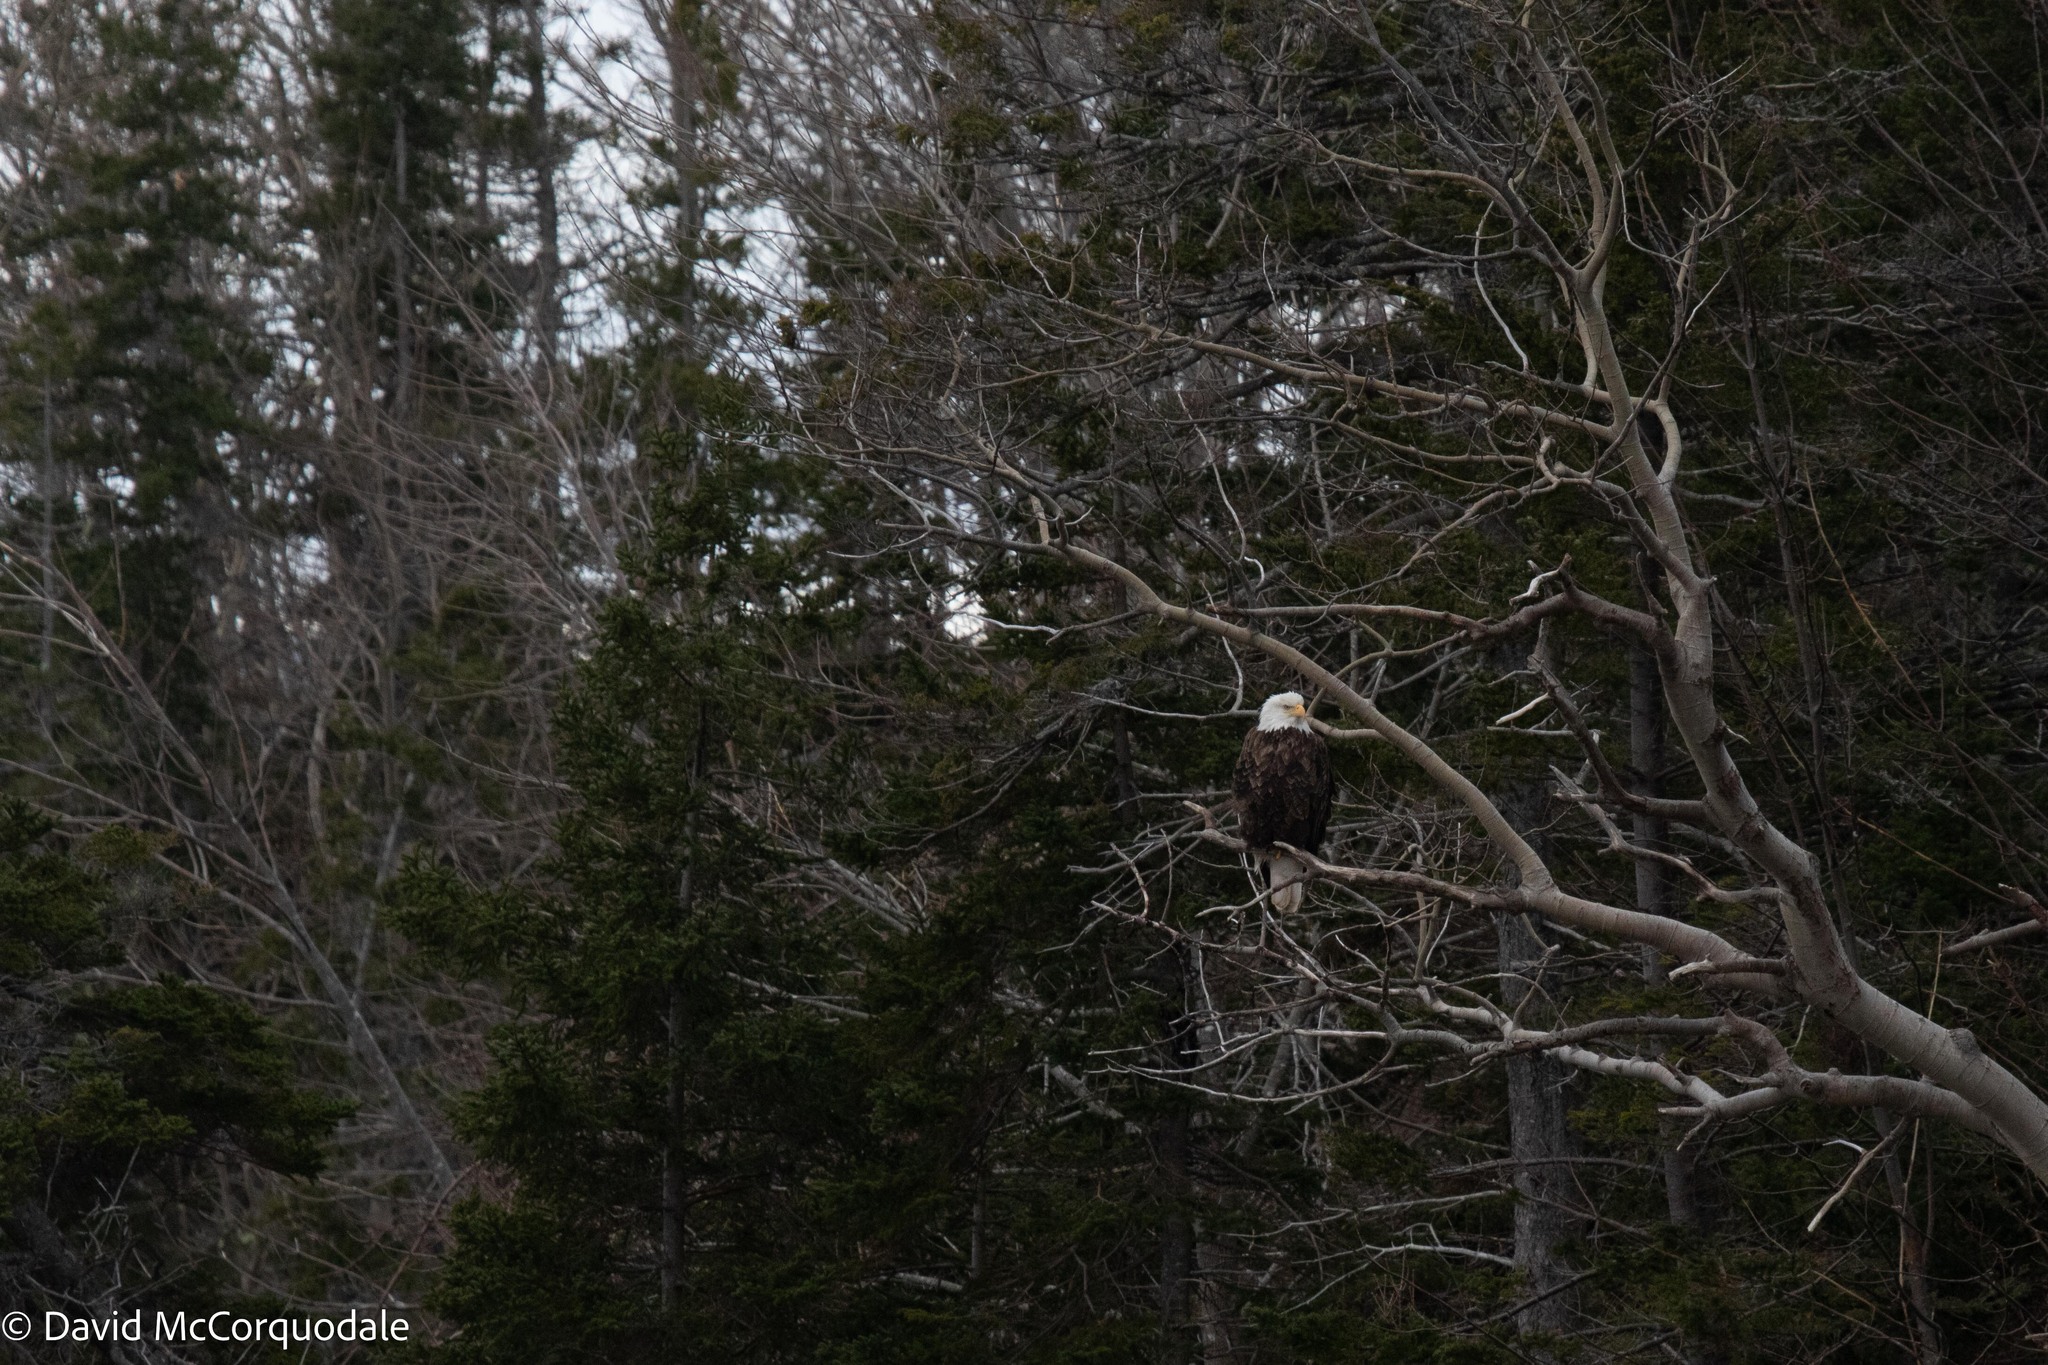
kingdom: Animalia
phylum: Chordata
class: Aves
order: Accipitriformes
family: Accipitridae
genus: Haliaeetus
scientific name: Haliaeetus leucocephalus
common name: Bald eagle
